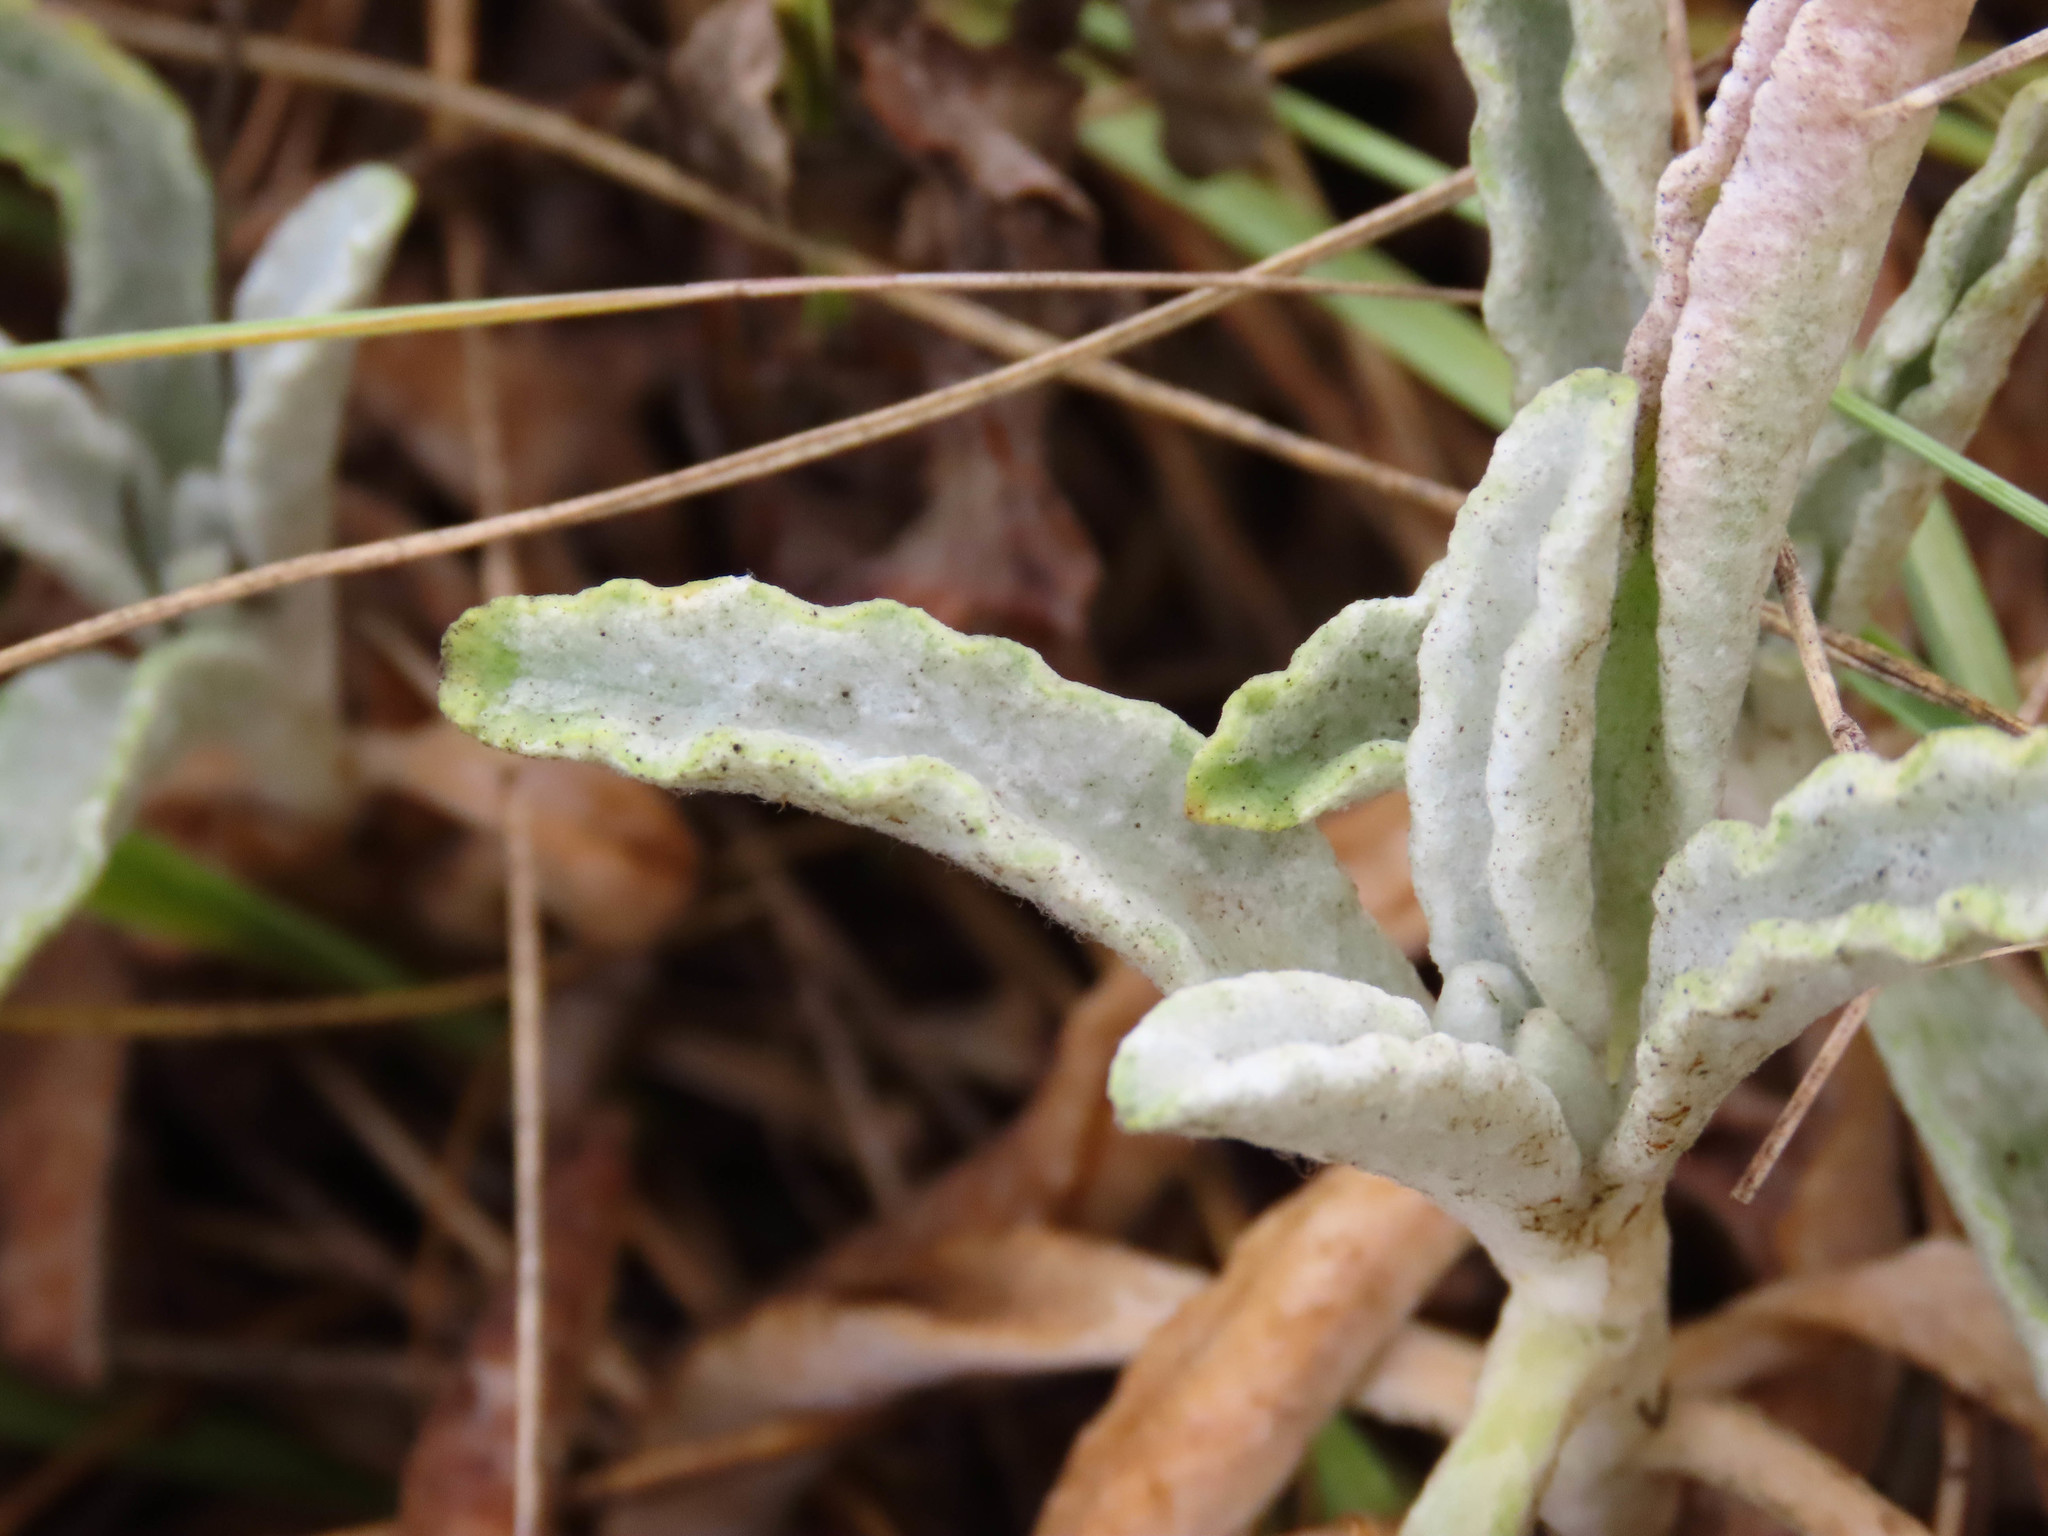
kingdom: Plantae
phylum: Tracheophyta
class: Magnoliopsida
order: Lamiales
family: Lamiaceae
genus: Sideritis
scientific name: Sideritis italica
